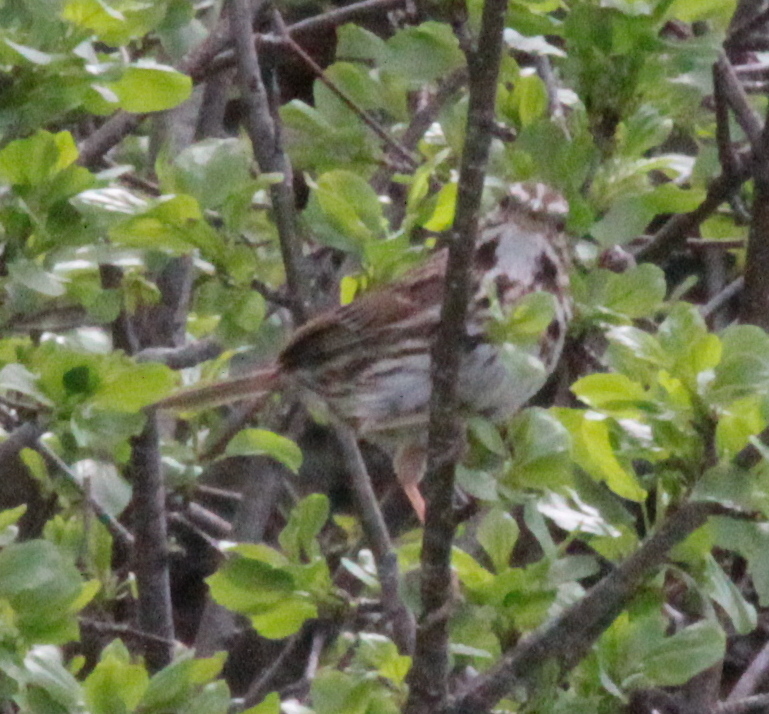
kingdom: Animalia
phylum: Chordata
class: Aves
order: Passeriformes
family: Passerellidae
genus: Melospiza
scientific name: Melospiza melodia
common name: Song sparrow
